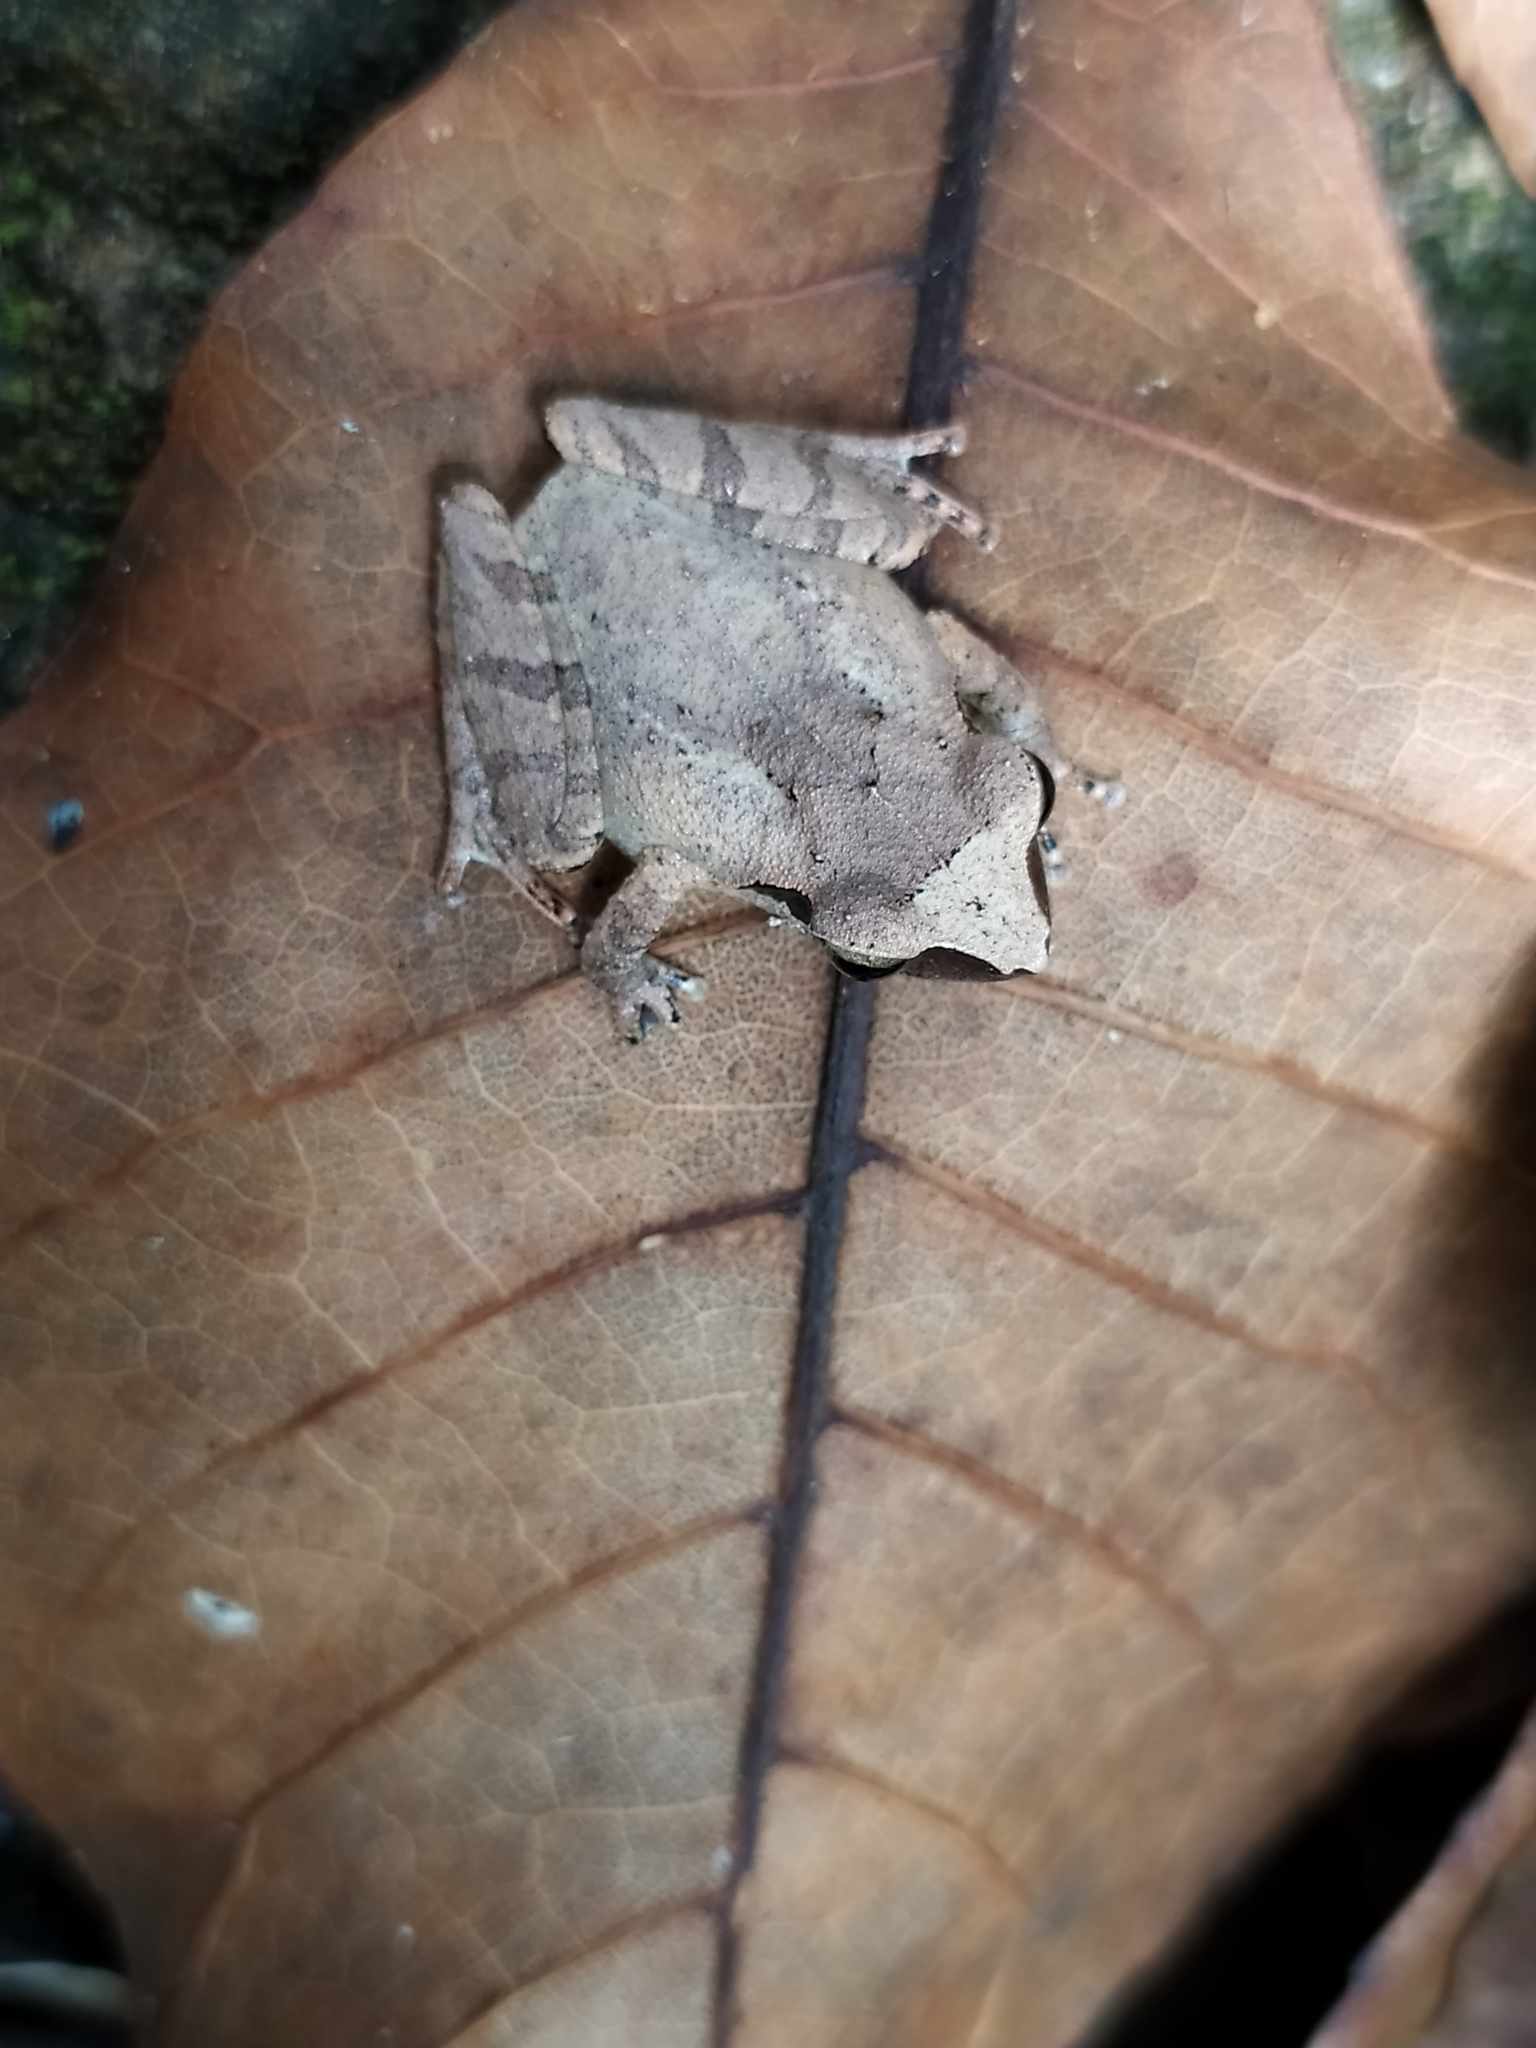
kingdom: Animalia
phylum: Chordata
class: Amphibia
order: Anura
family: Rhacophoridae
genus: Pseudophilautus
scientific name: Pseudophilautus wynaadensis
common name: Dark-eared bush frog
